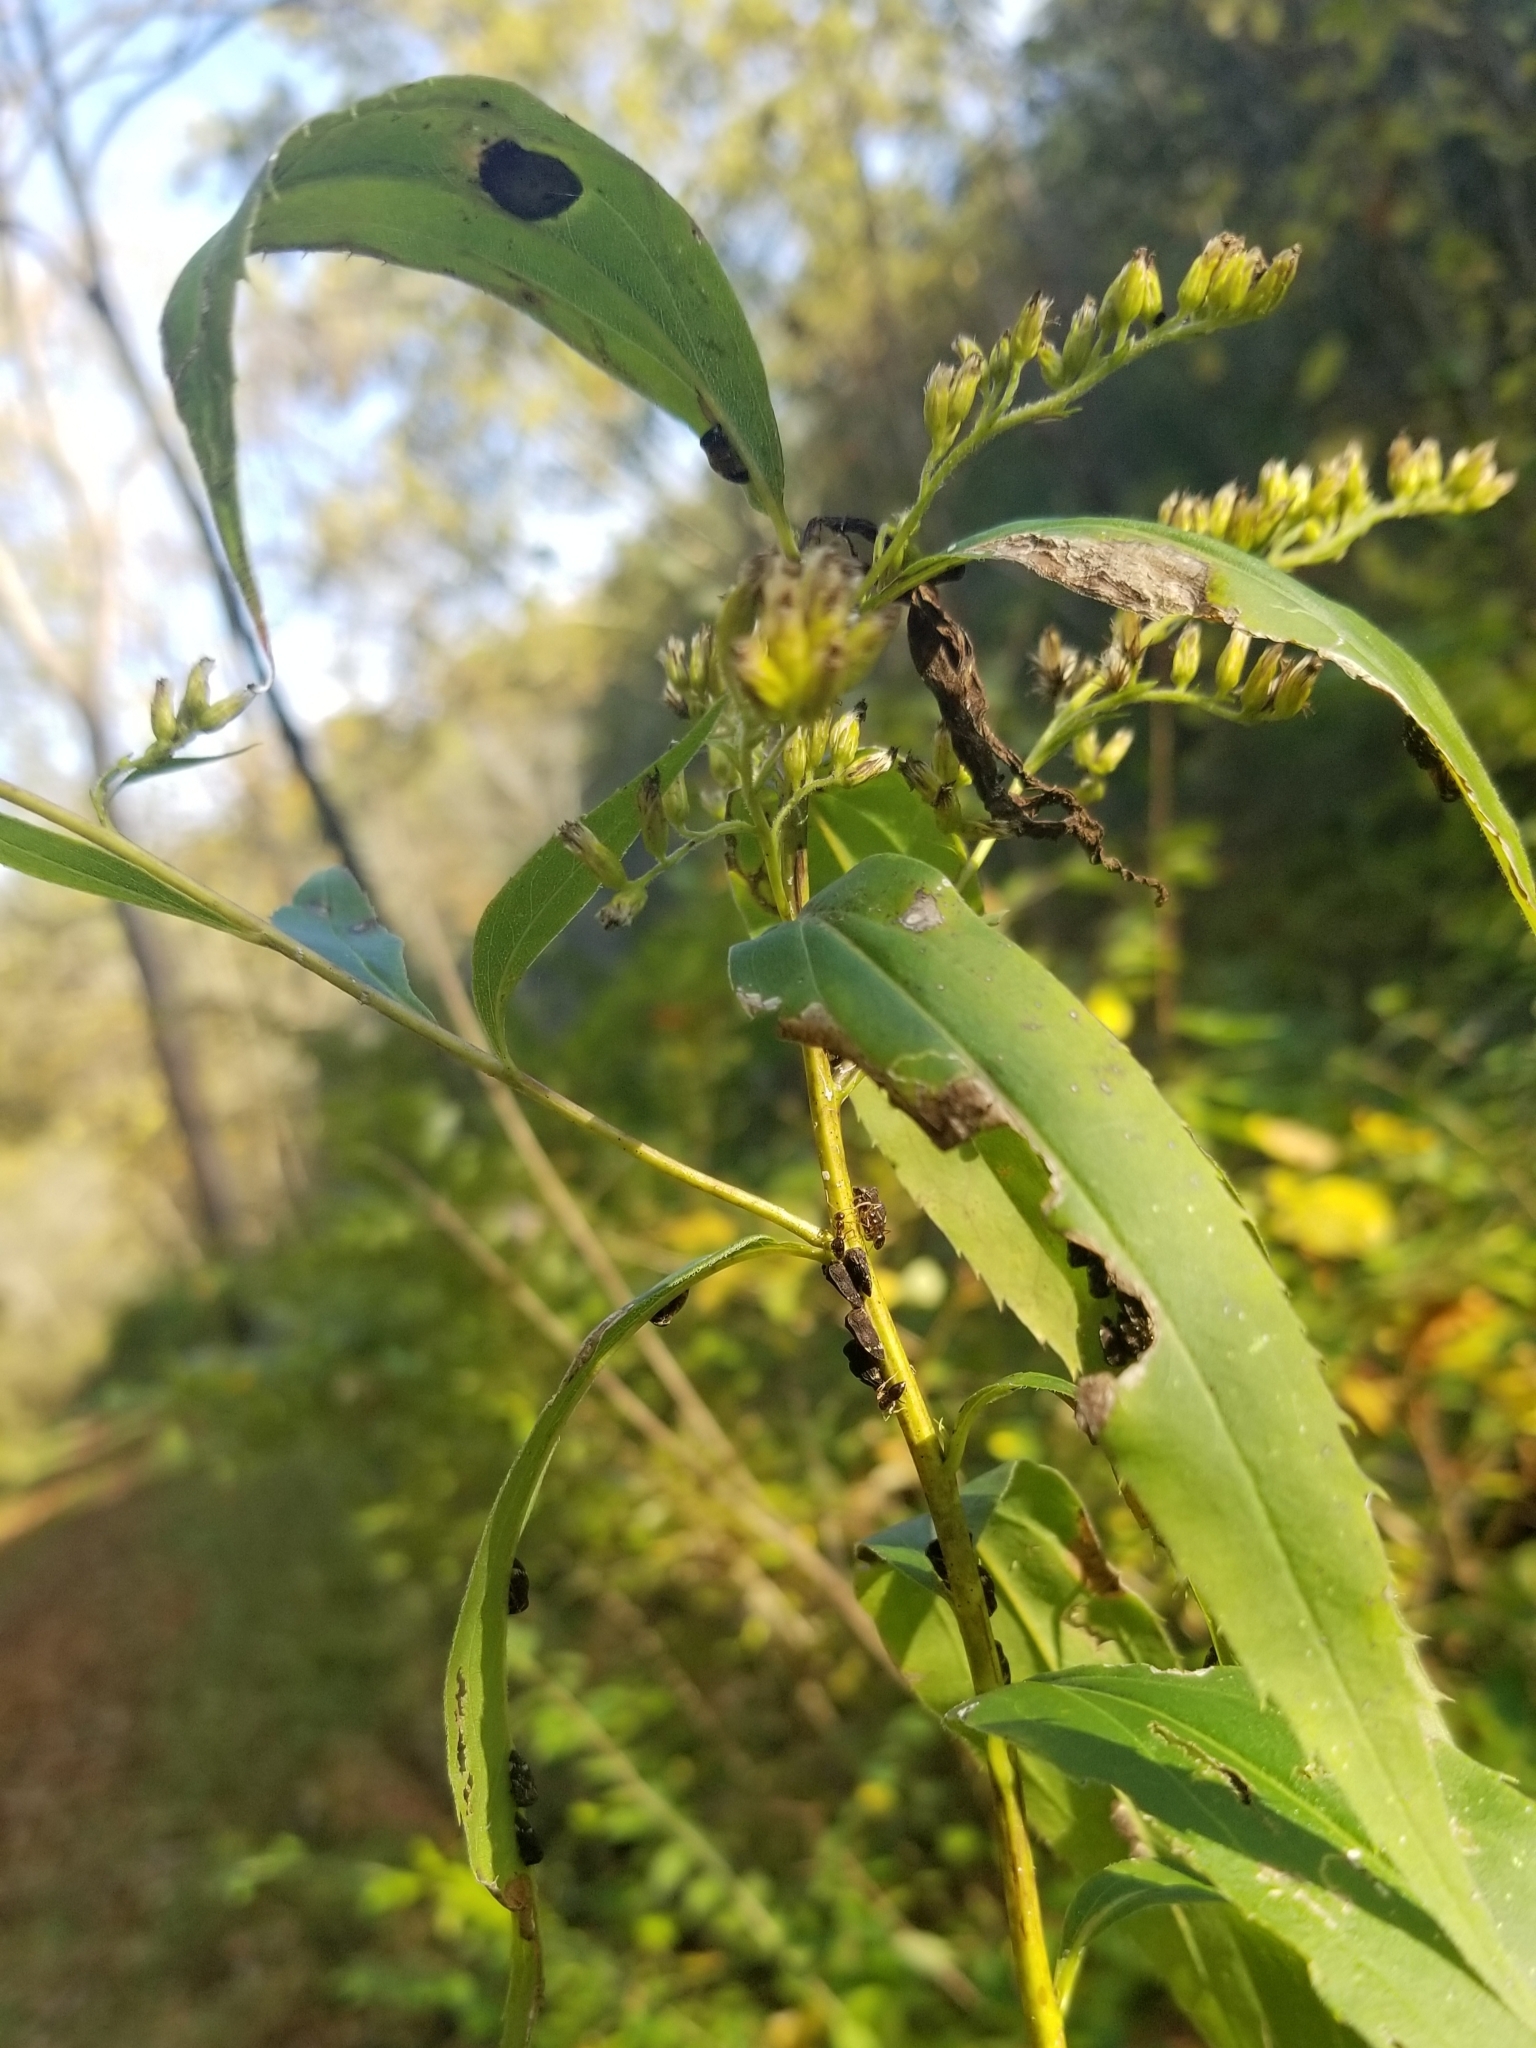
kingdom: Animalia
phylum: Arthropoda
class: Insecta
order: Hemiptera
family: Membracidae
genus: Publilia
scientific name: Publilia concava
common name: Aster treehopper
